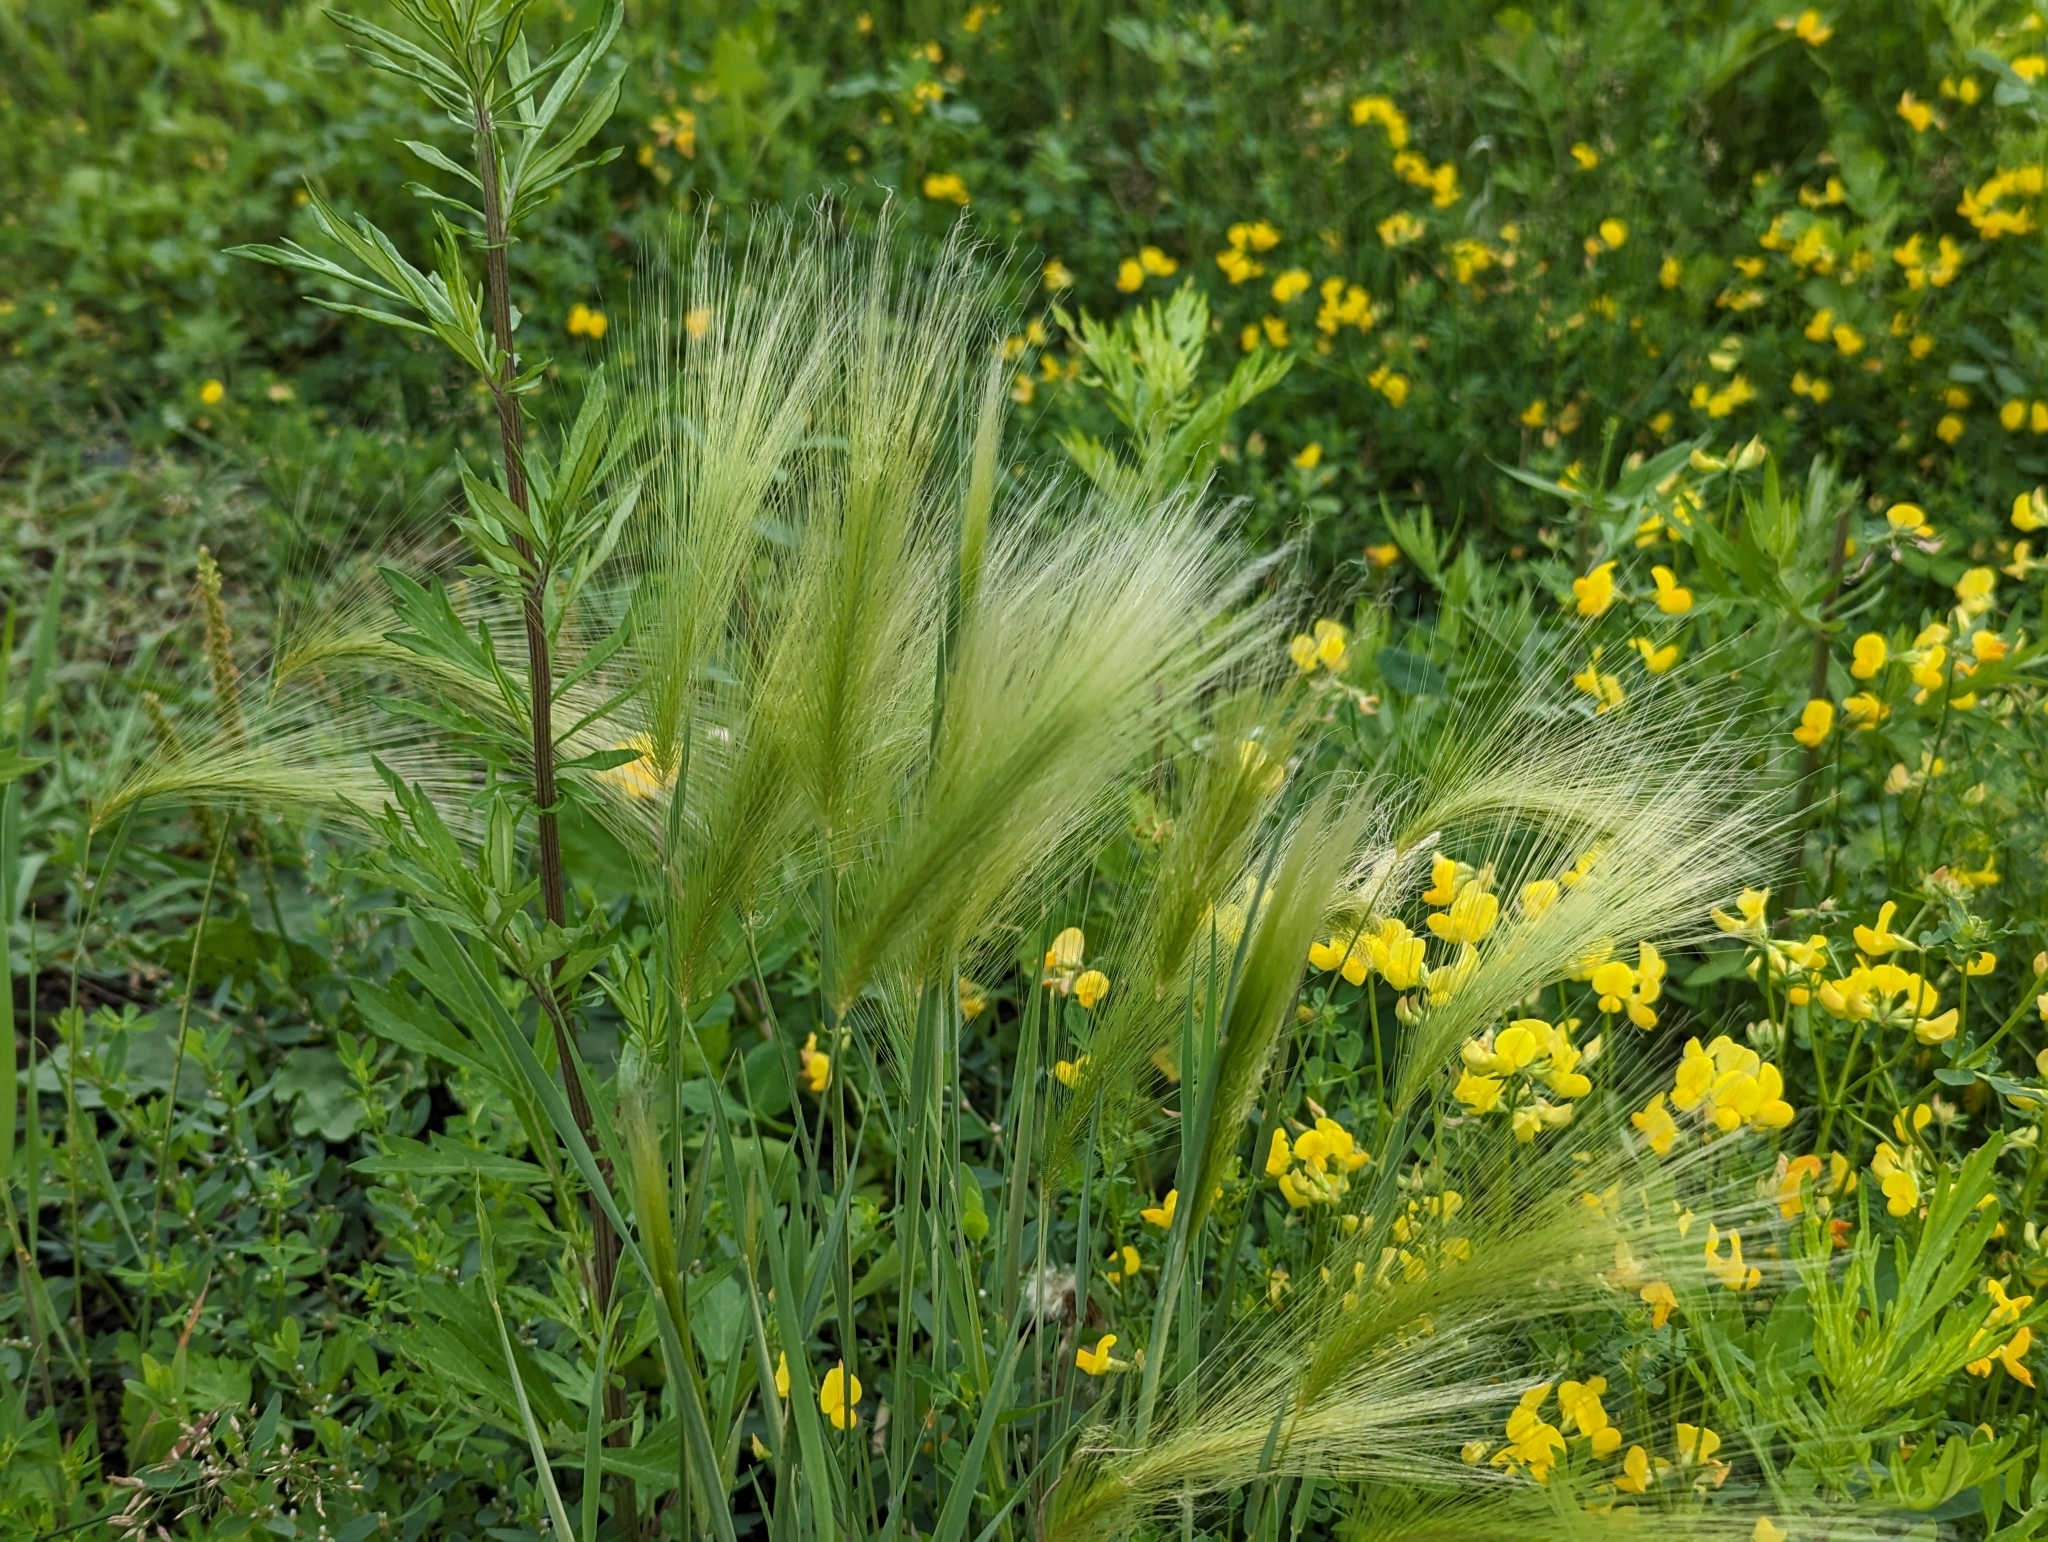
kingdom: Plantae
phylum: Tracheophyta
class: Liliopsida
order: Poales
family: Poaceae
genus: Hordeum
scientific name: Hordeum jubatum
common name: Foxtail barley
